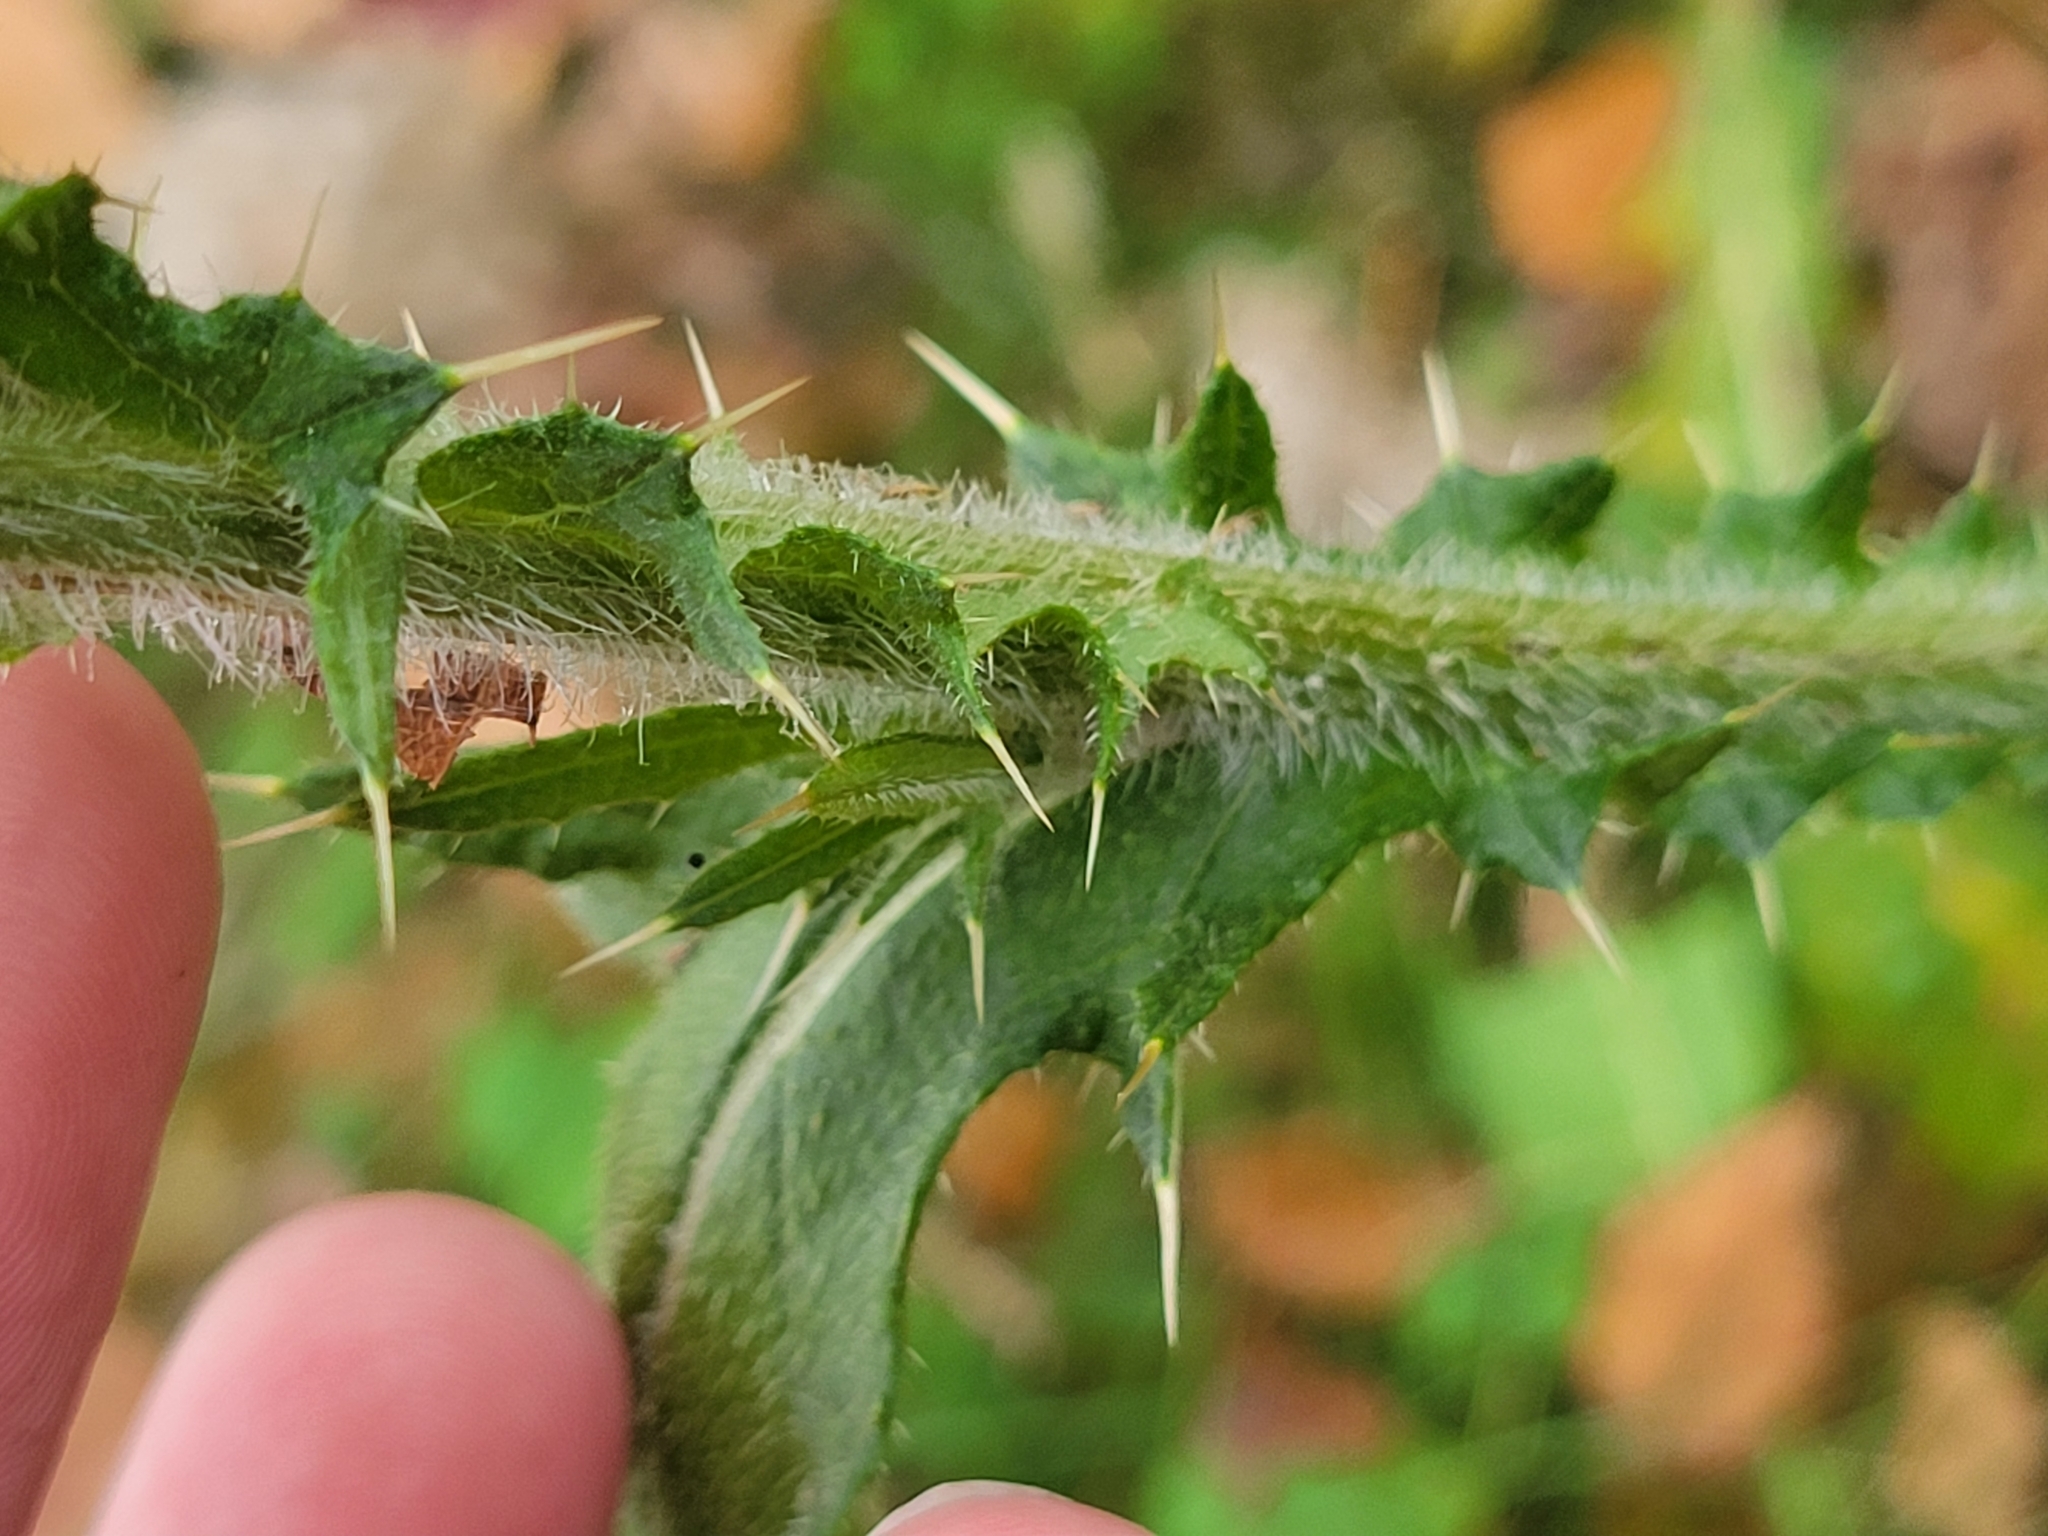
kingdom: Plantae
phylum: Tracheophyta
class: Magnoliopsida
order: Asterales
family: Asteraceae
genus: Cirsium
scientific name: Cirsium vulgare
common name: Bull thistle
